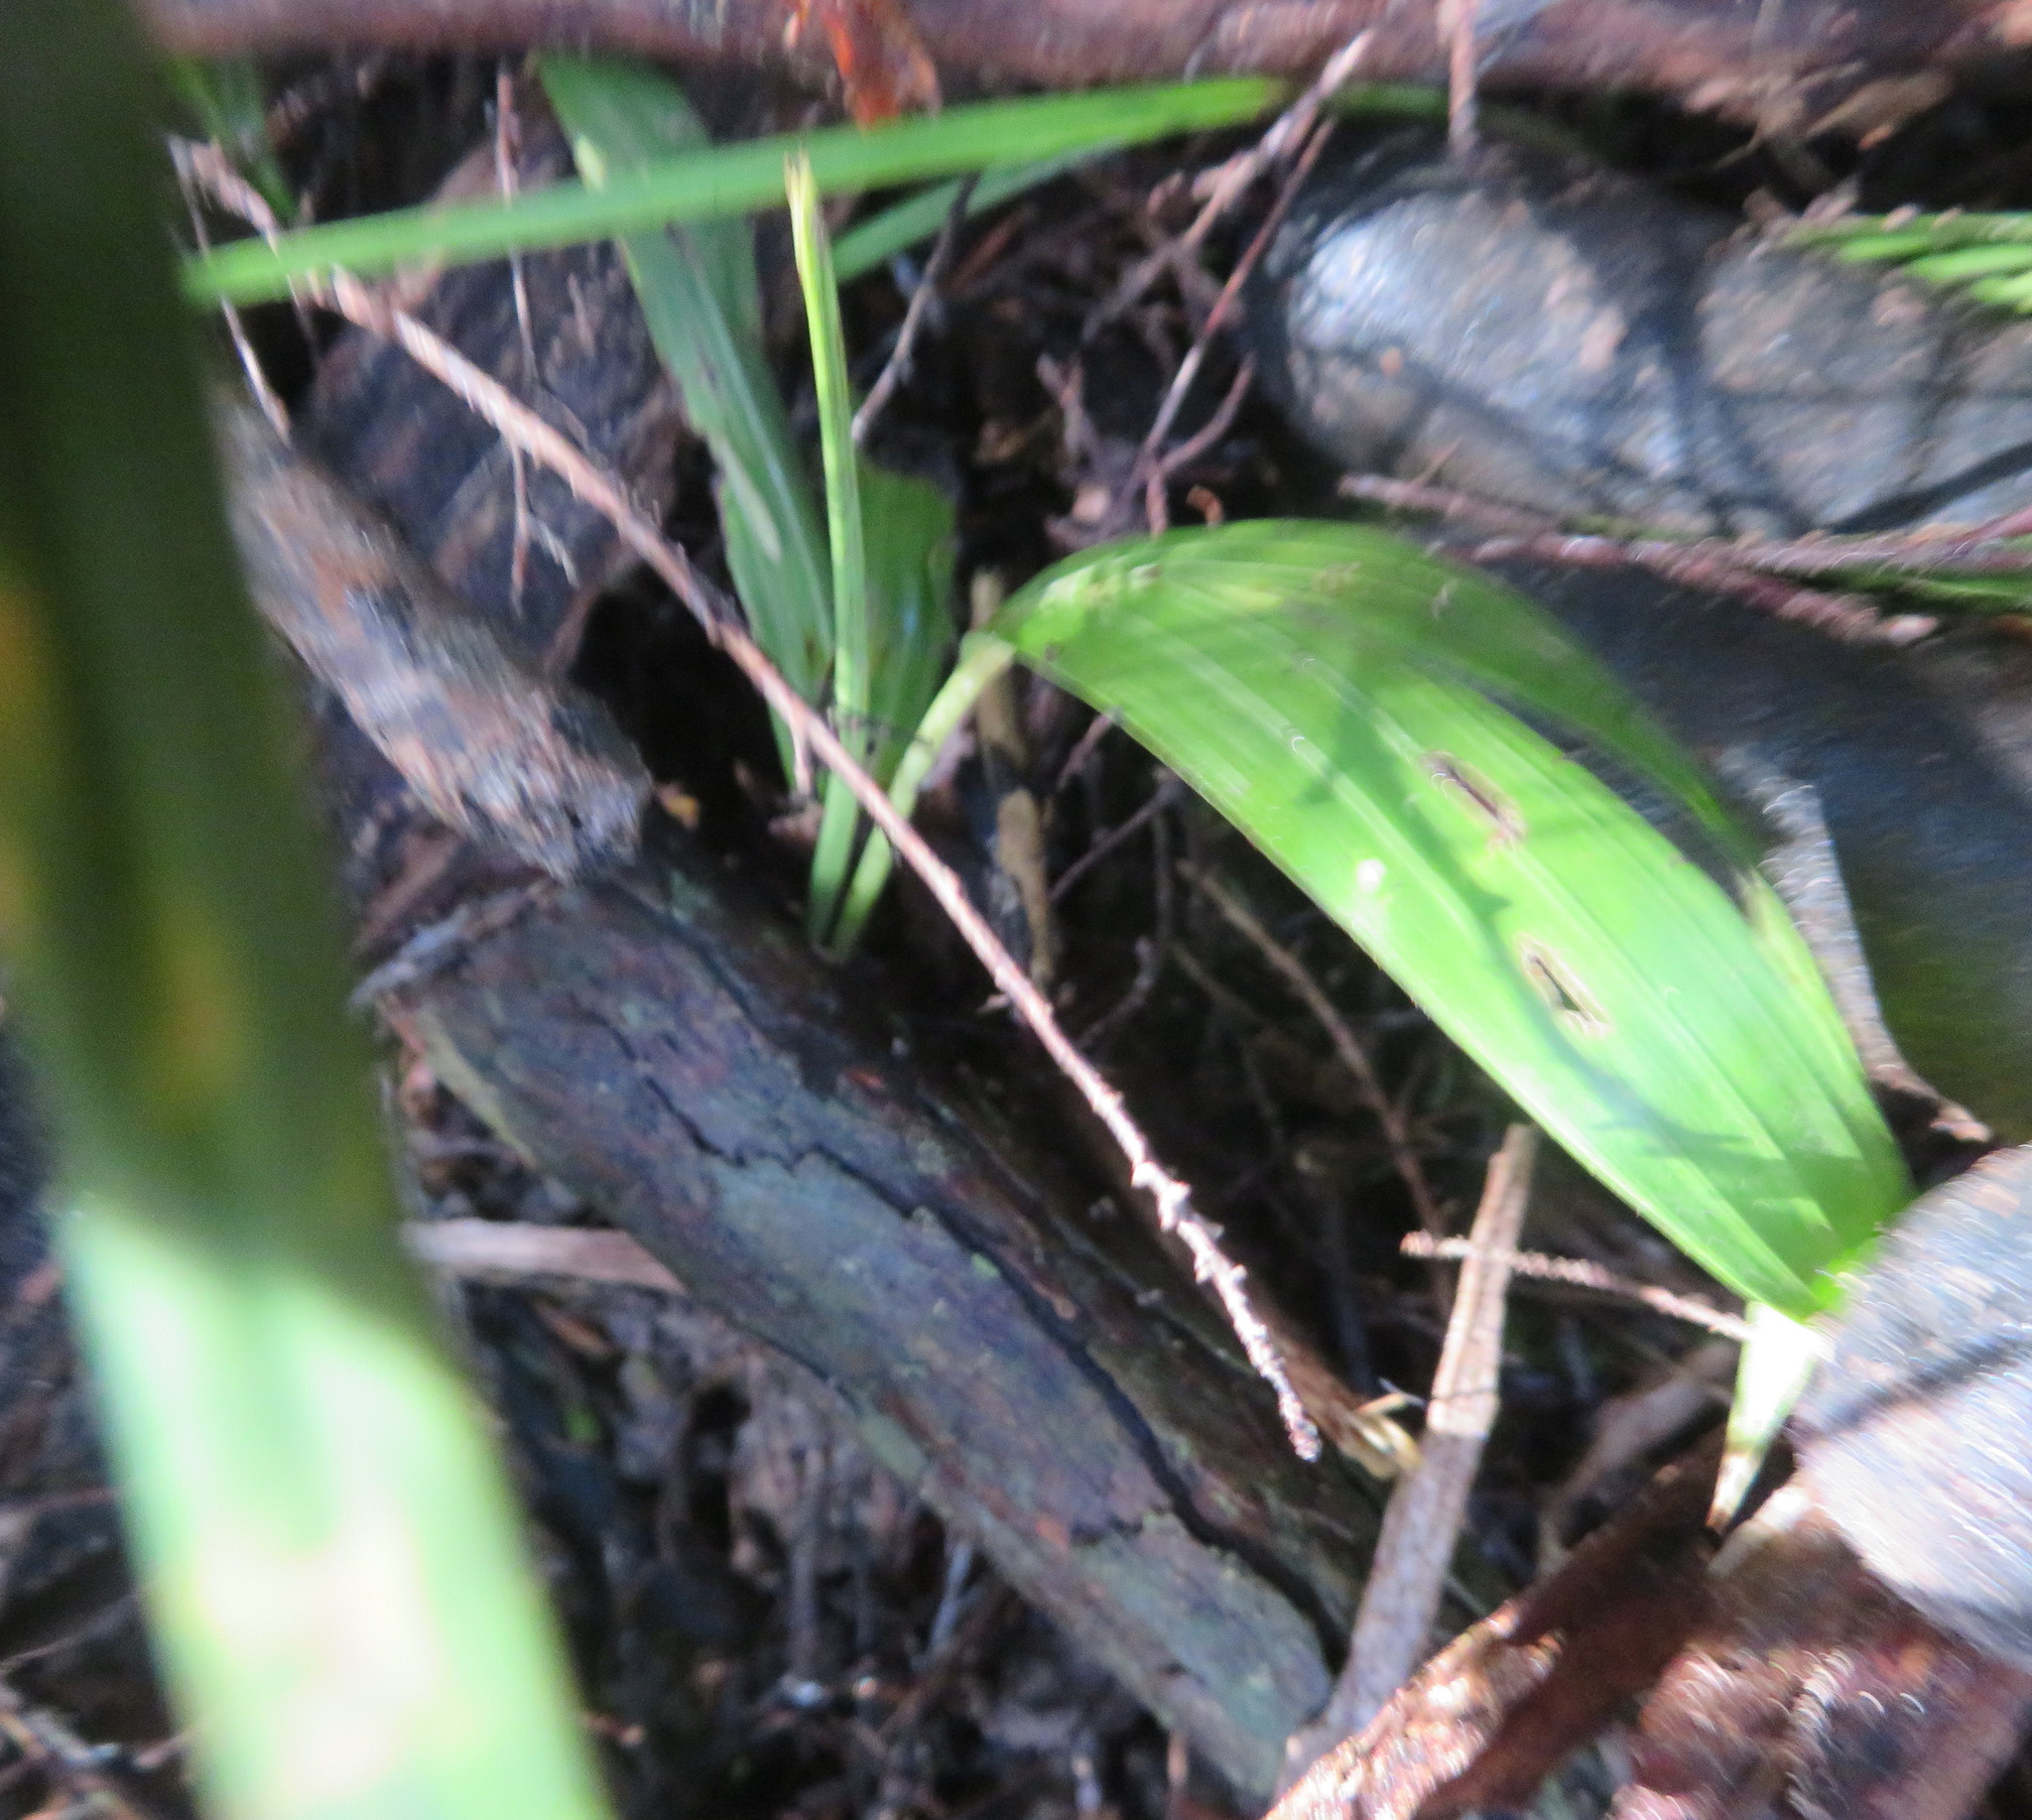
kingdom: Plantae
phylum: Tracheophyta
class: Liliopsida
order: Arecales
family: Arecaceae
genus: Archontophoenix
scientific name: Archontophoenix cunninghamiana
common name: Piccabeen bangalow palm
